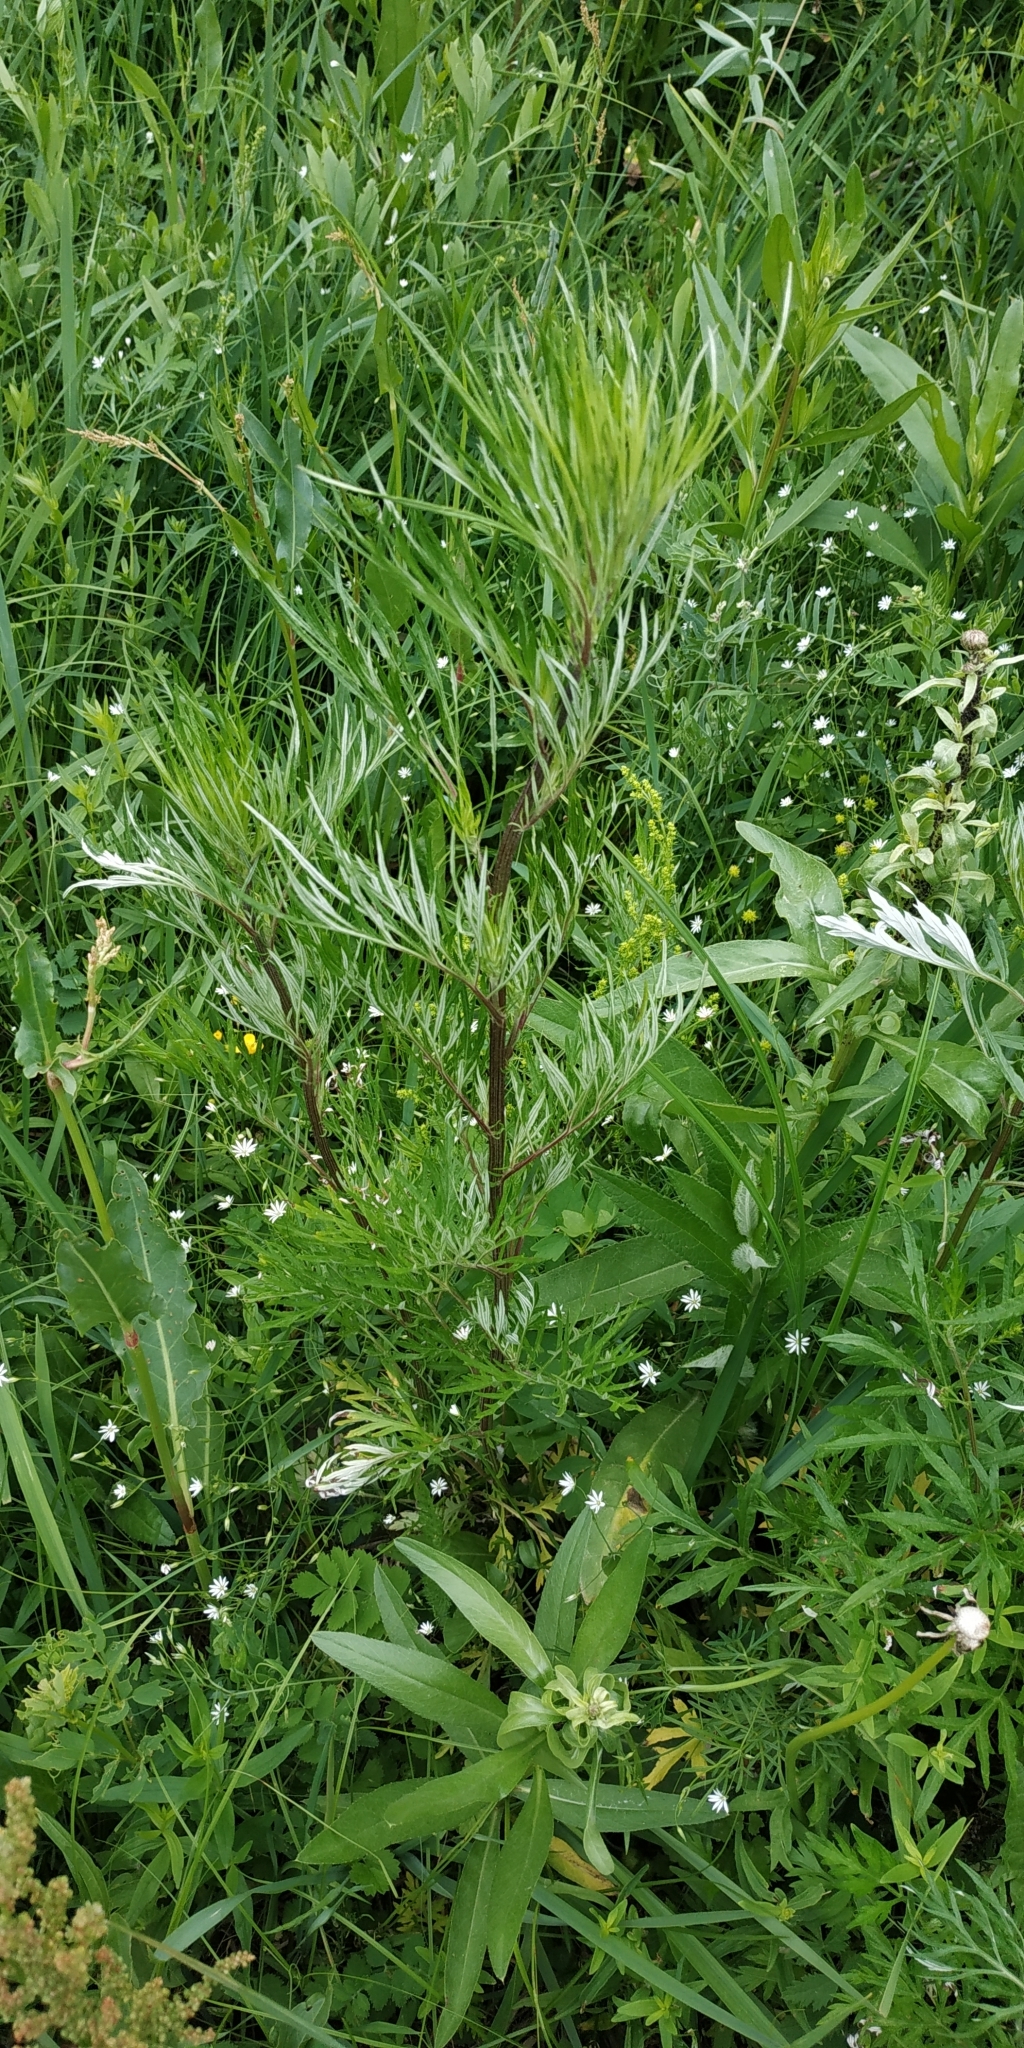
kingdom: Plantae
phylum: Tracheophyta
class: Magnoliopsida
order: Asterales
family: Asteraceae
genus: Artemisia
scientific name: Artemisia vulgaris
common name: Mugwort
